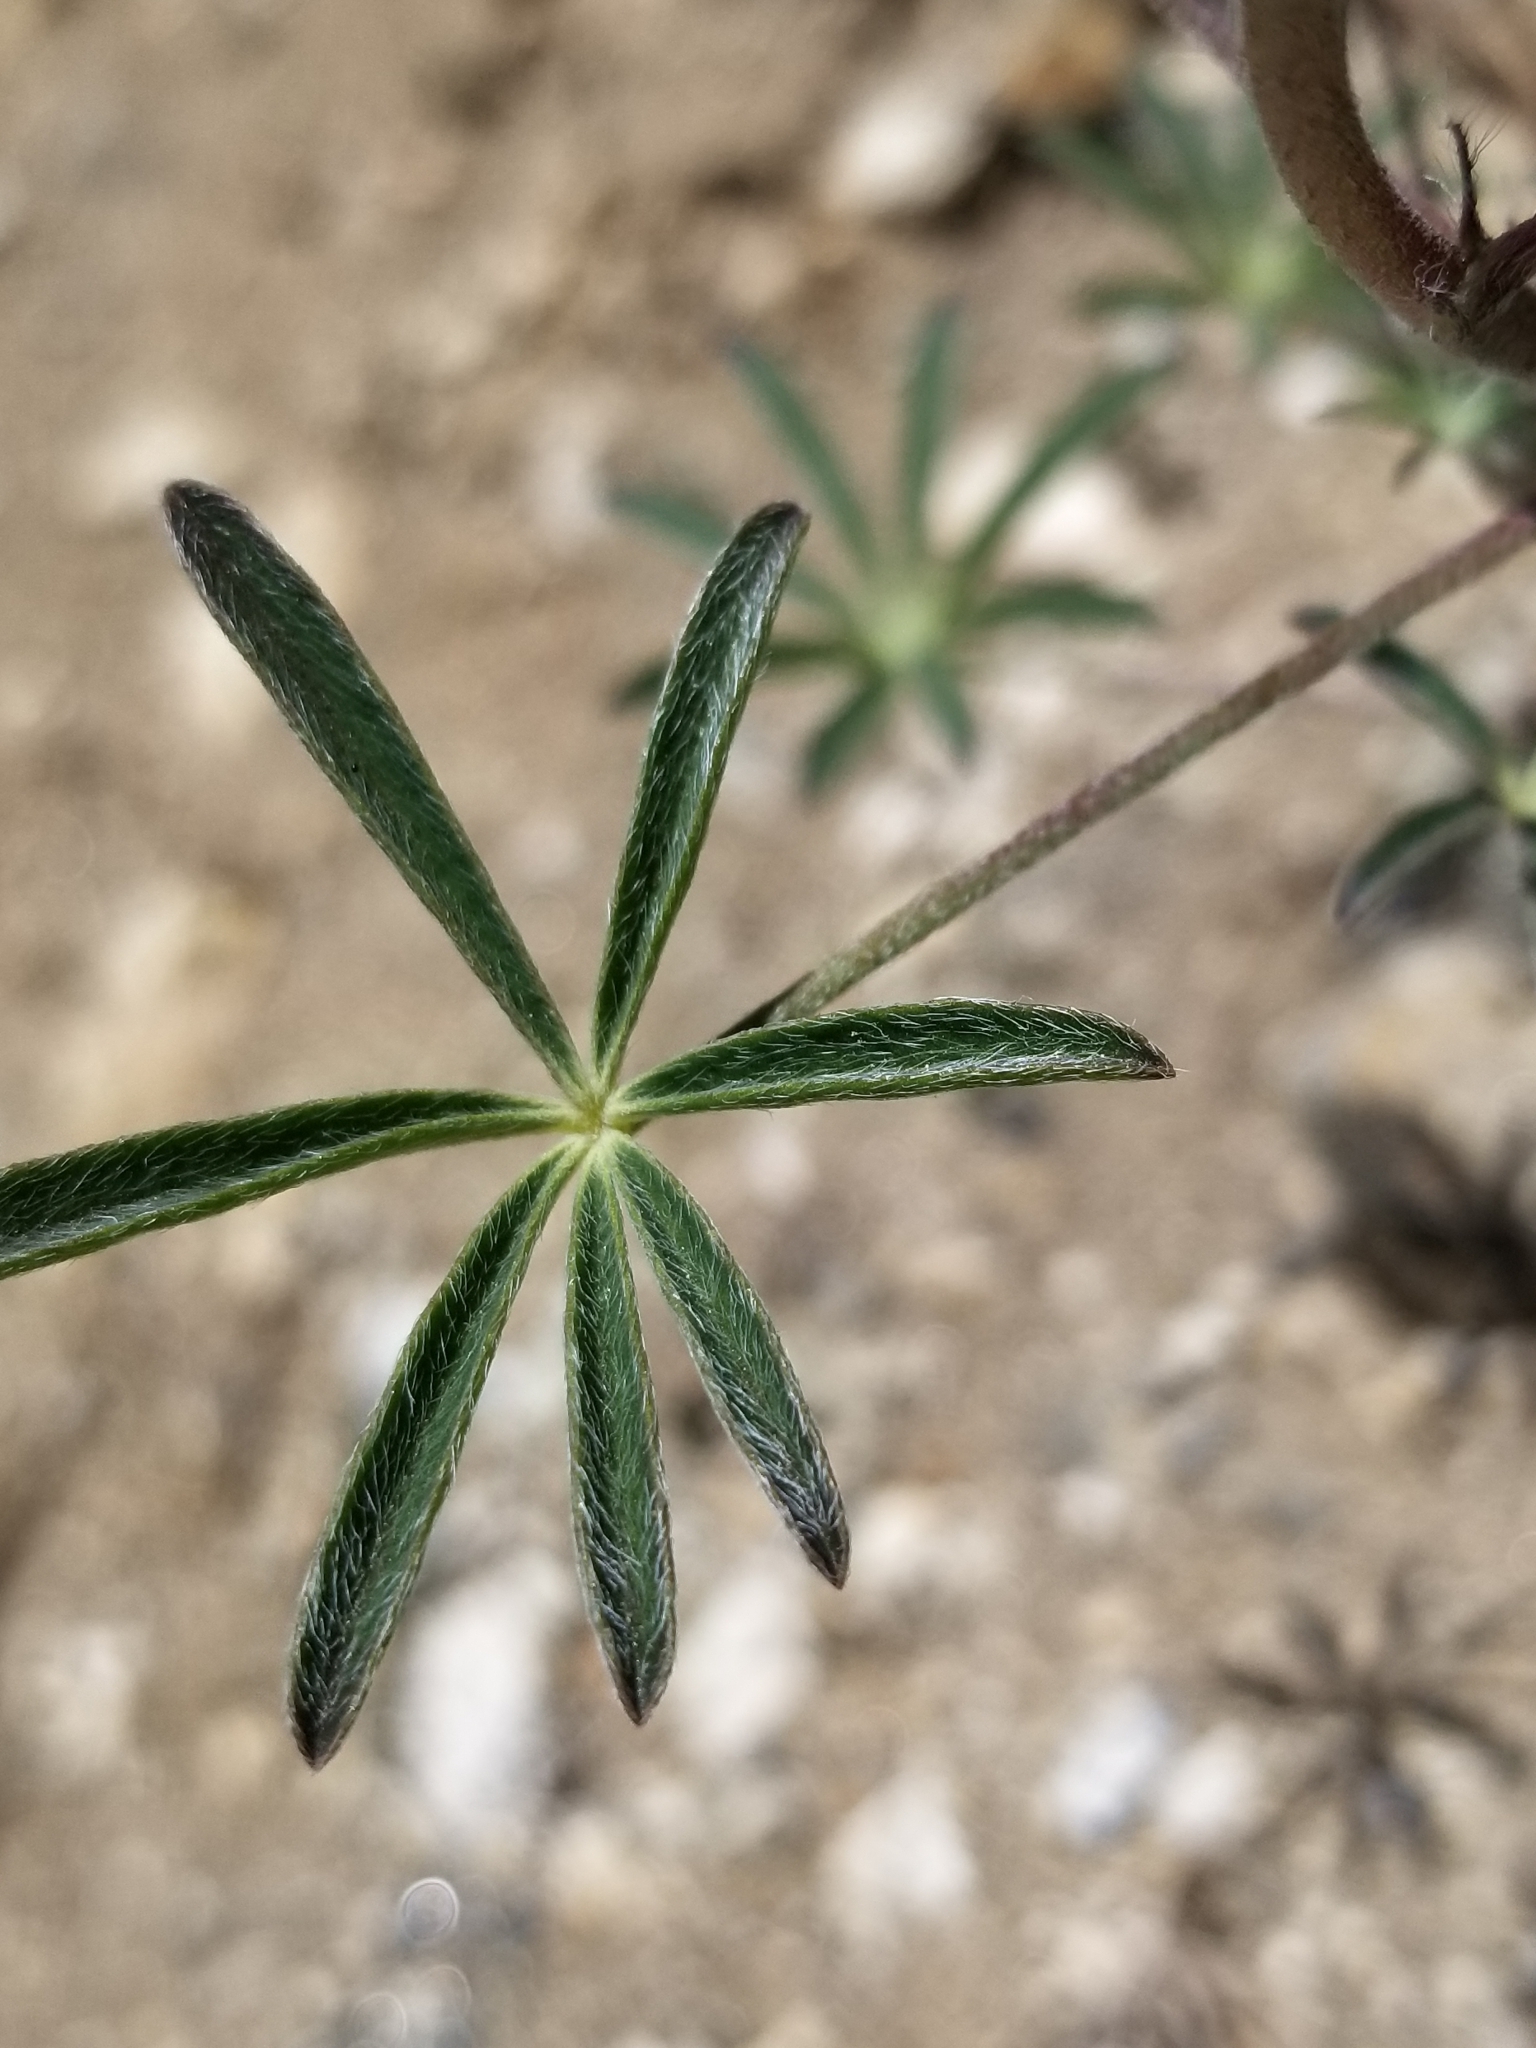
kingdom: Plantae
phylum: Tracheophyta
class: Magnoliopsida
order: Fabales
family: Fabaceae
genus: Lupinus
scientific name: Lupinus sparsiflorus
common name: Coulter's lupine
